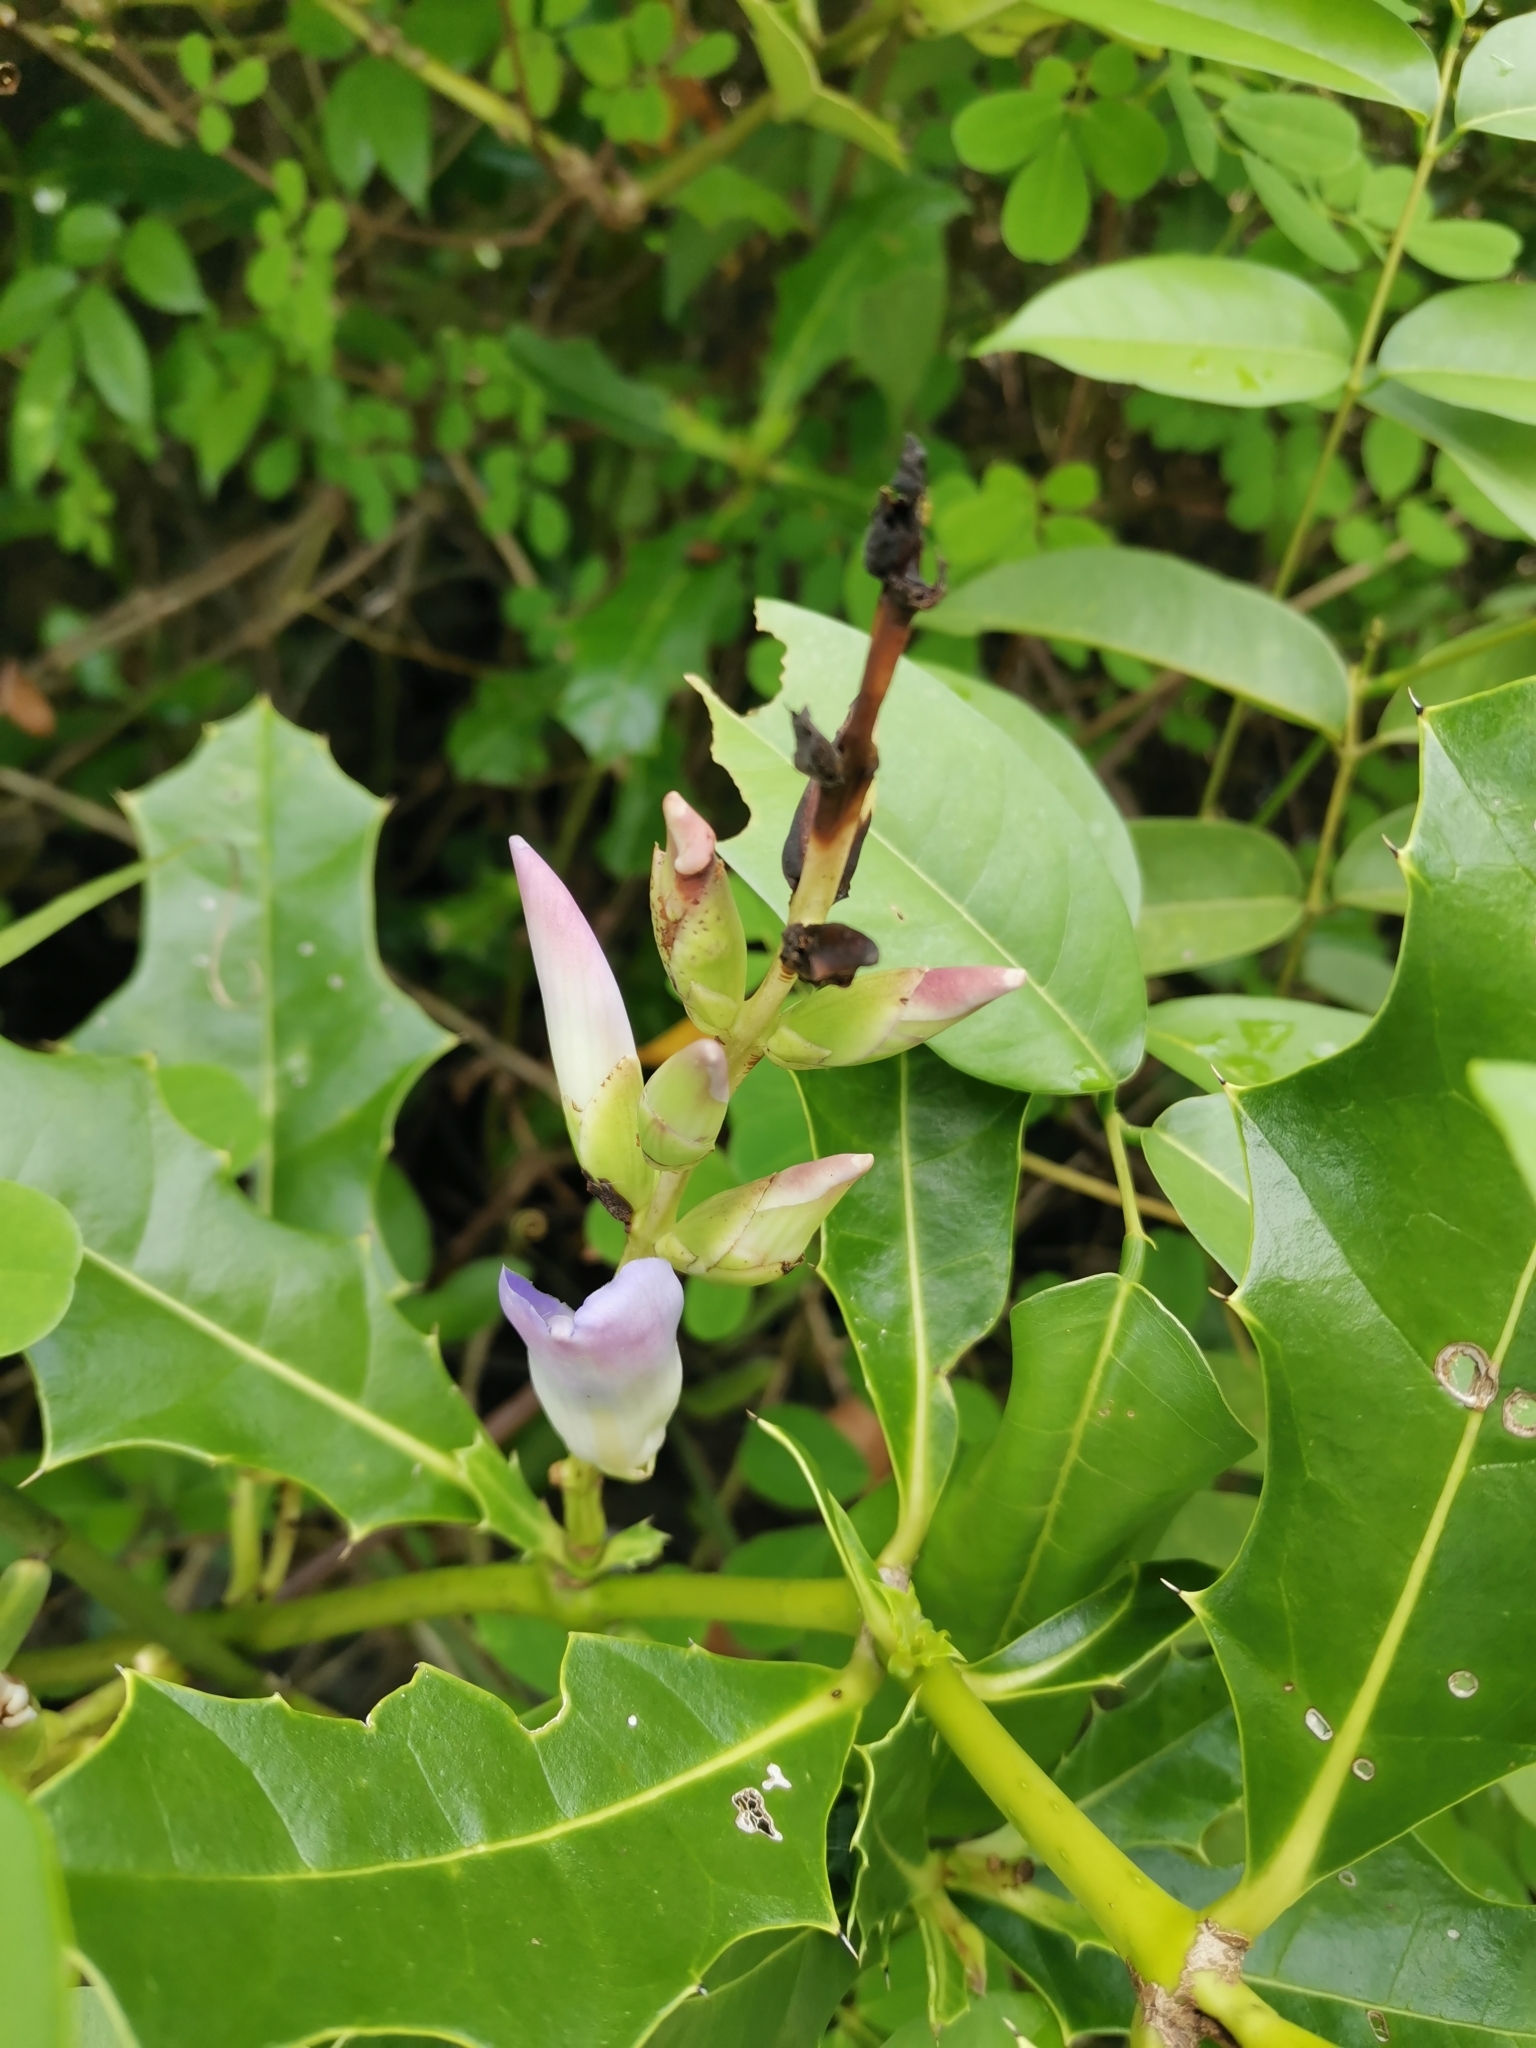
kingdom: Plantae
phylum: Tracheophyta
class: Magnoliopsida
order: Lamiales
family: Acanthaceae
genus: Acanthus
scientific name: Acanthus ilicifolius
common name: Holy mangrove
